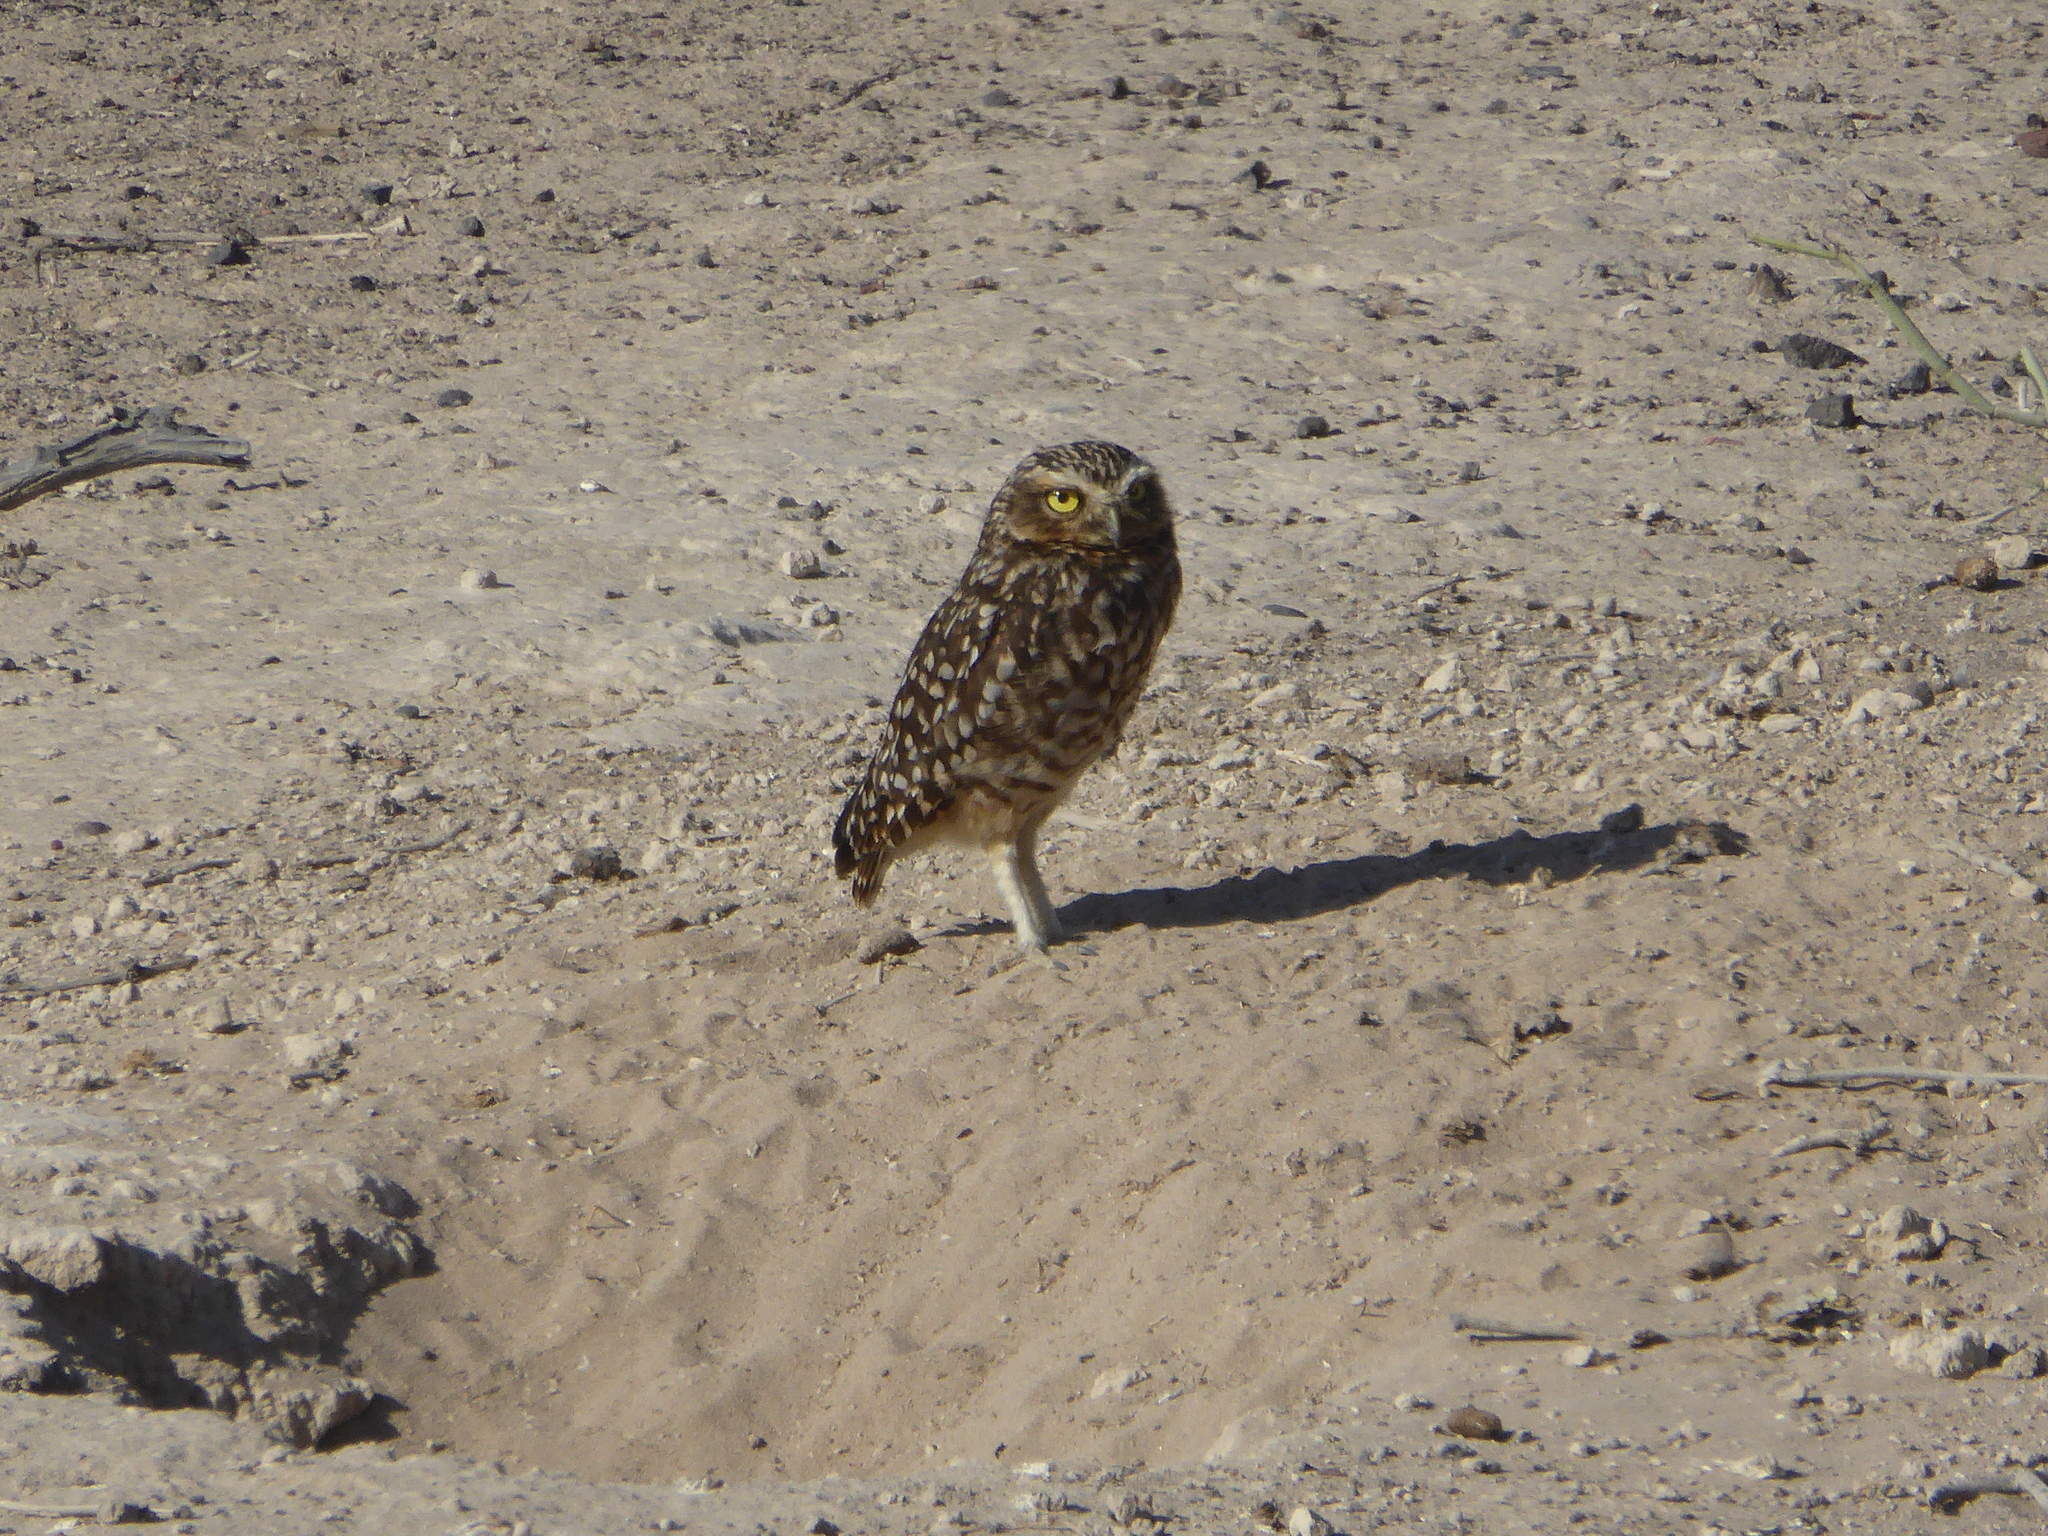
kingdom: Animalia
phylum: Chordata
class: Aves
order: Strigiformes
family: Strigidae
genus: Athene
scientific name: Athene cunicularia
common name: Burrowing owl
